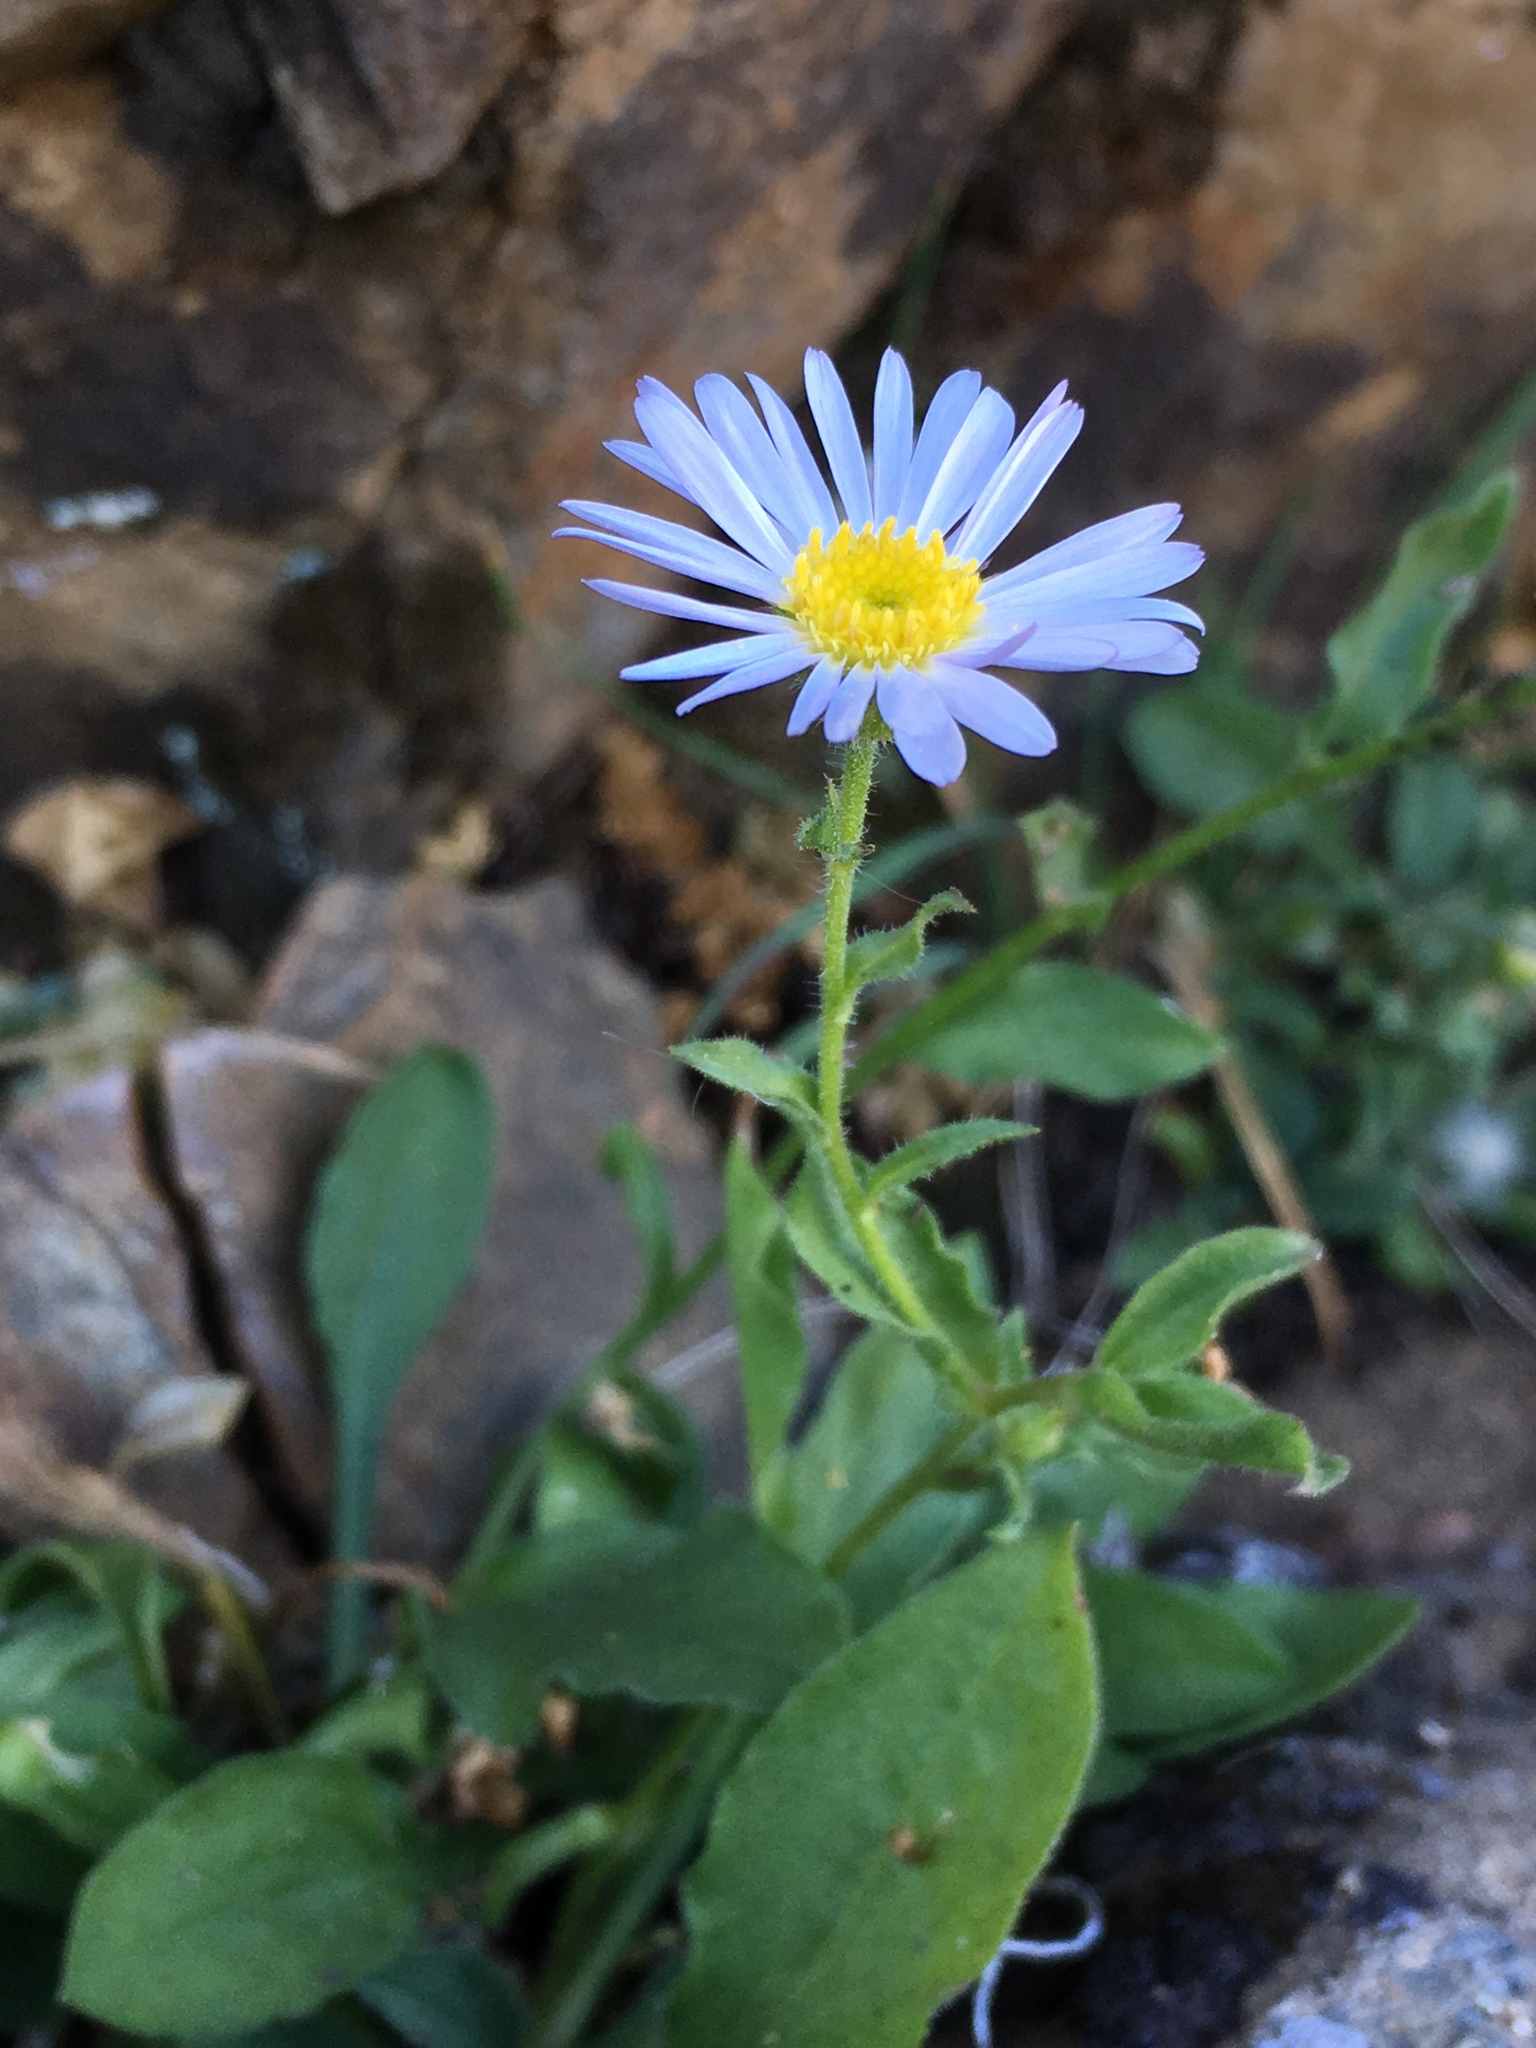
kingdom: Plantae
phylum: Tracheophyta
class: Magnoliopsida
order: Asterales
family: Asteraceae
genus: Erigeron
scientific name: Erigeron leibergii
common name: Leiberg's daisy
